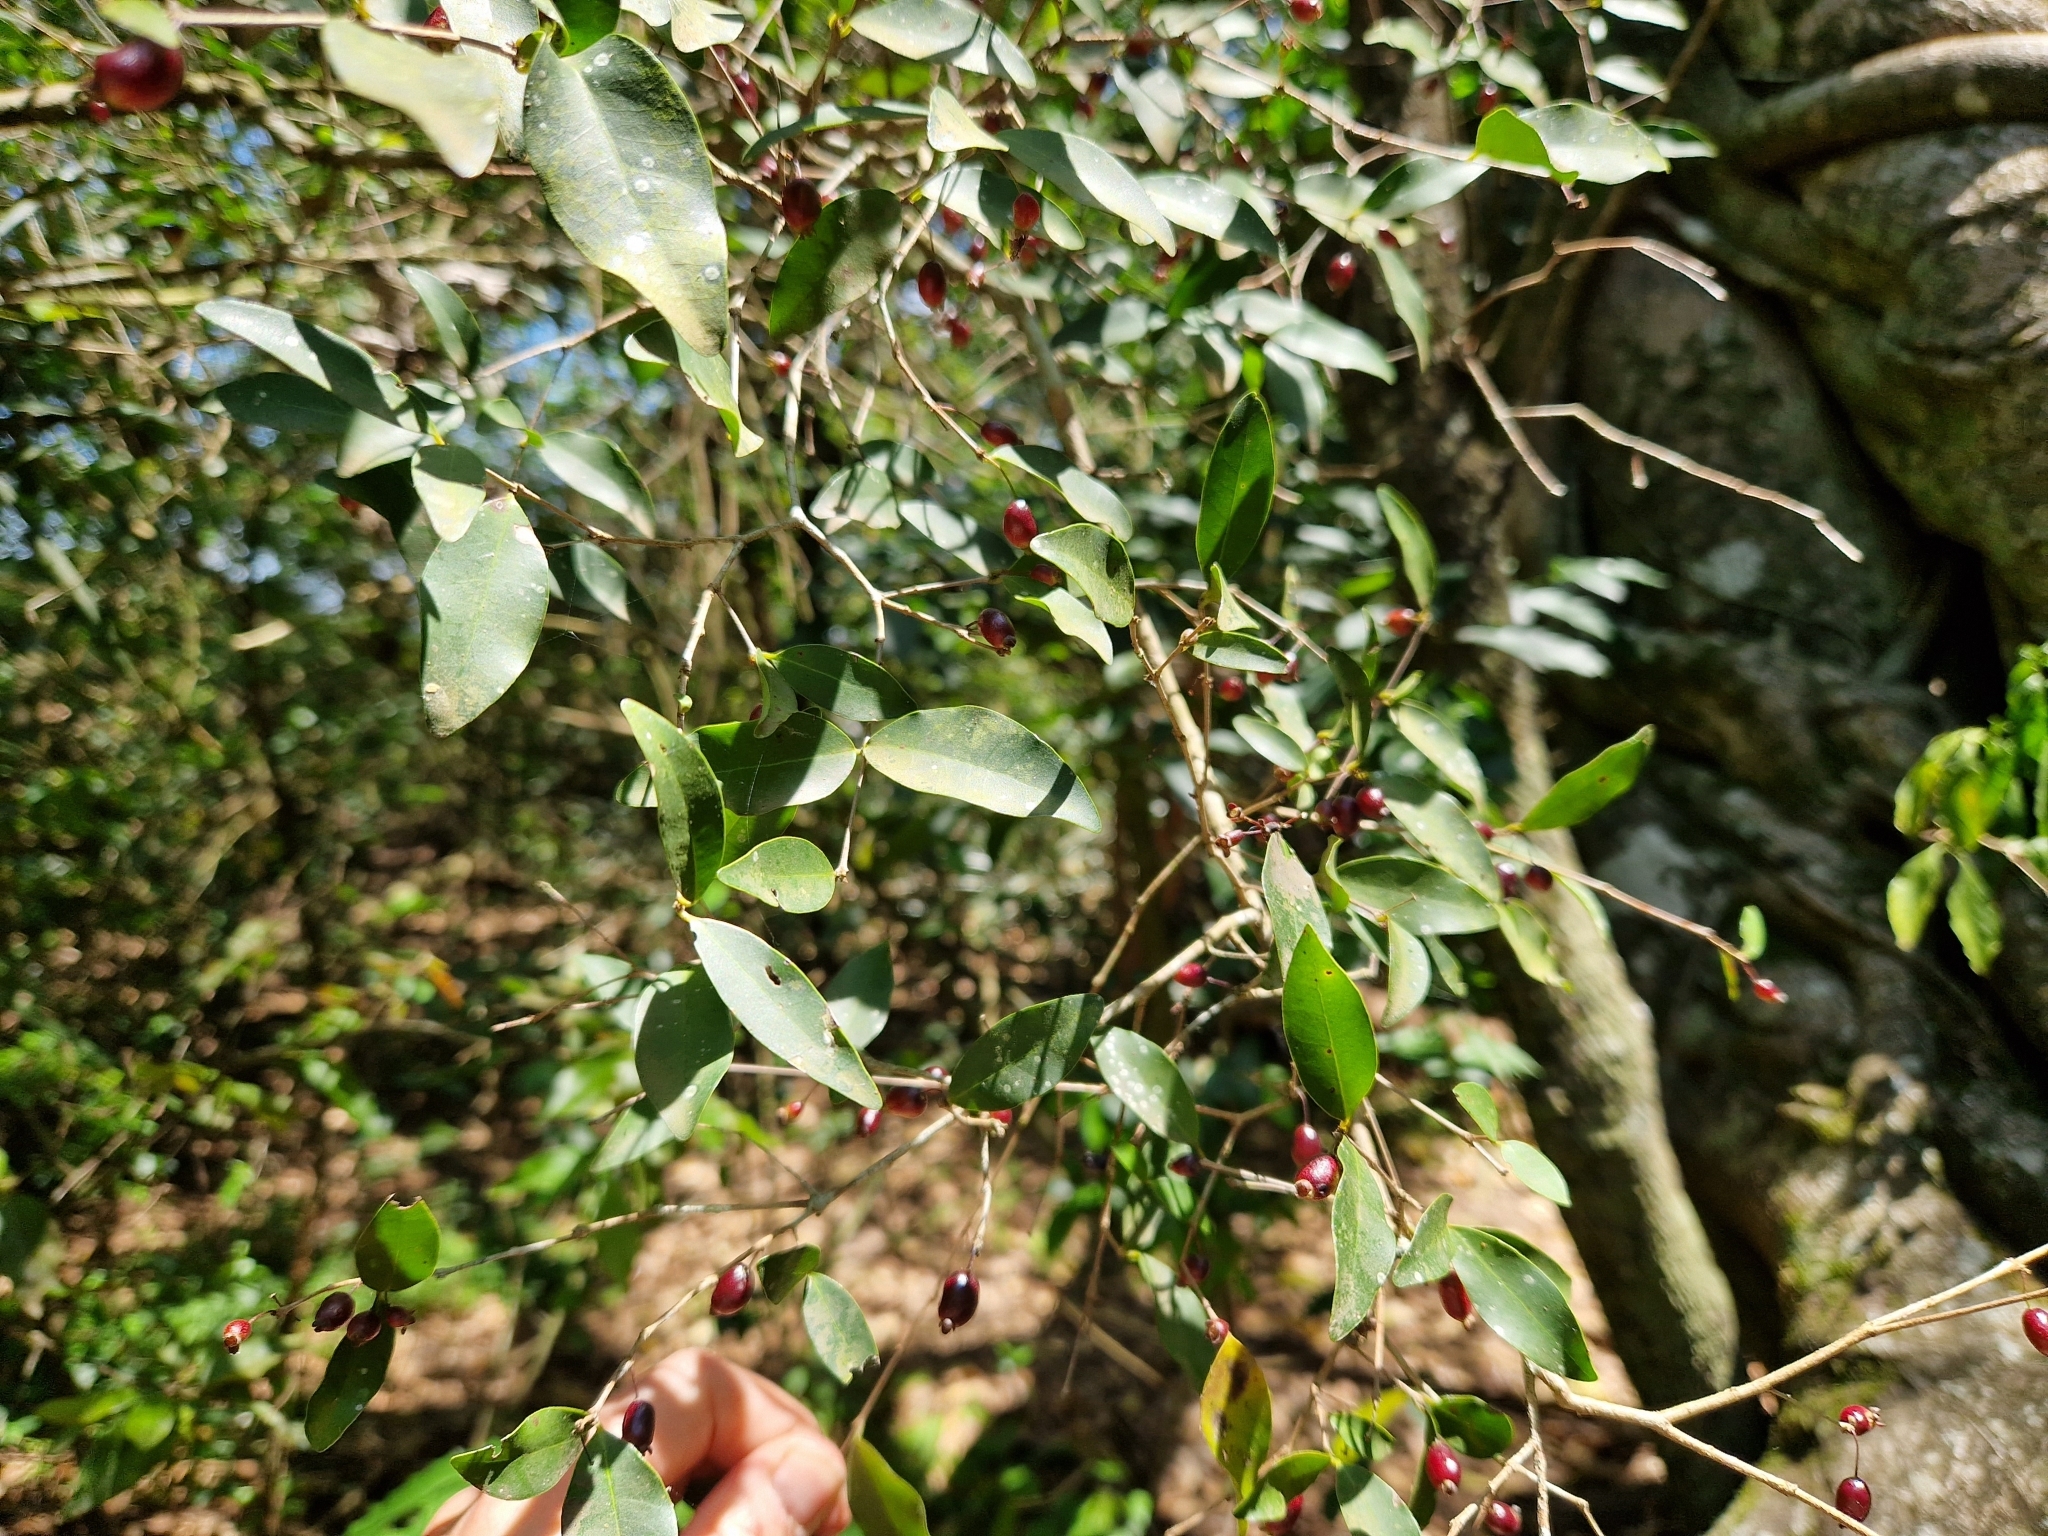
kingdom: Plantae
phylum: Tracheophyta
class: Magnoliopsida
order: Myrtales
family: Myrtaceae
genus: Eugenia
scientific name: Eugenia hiemalis
